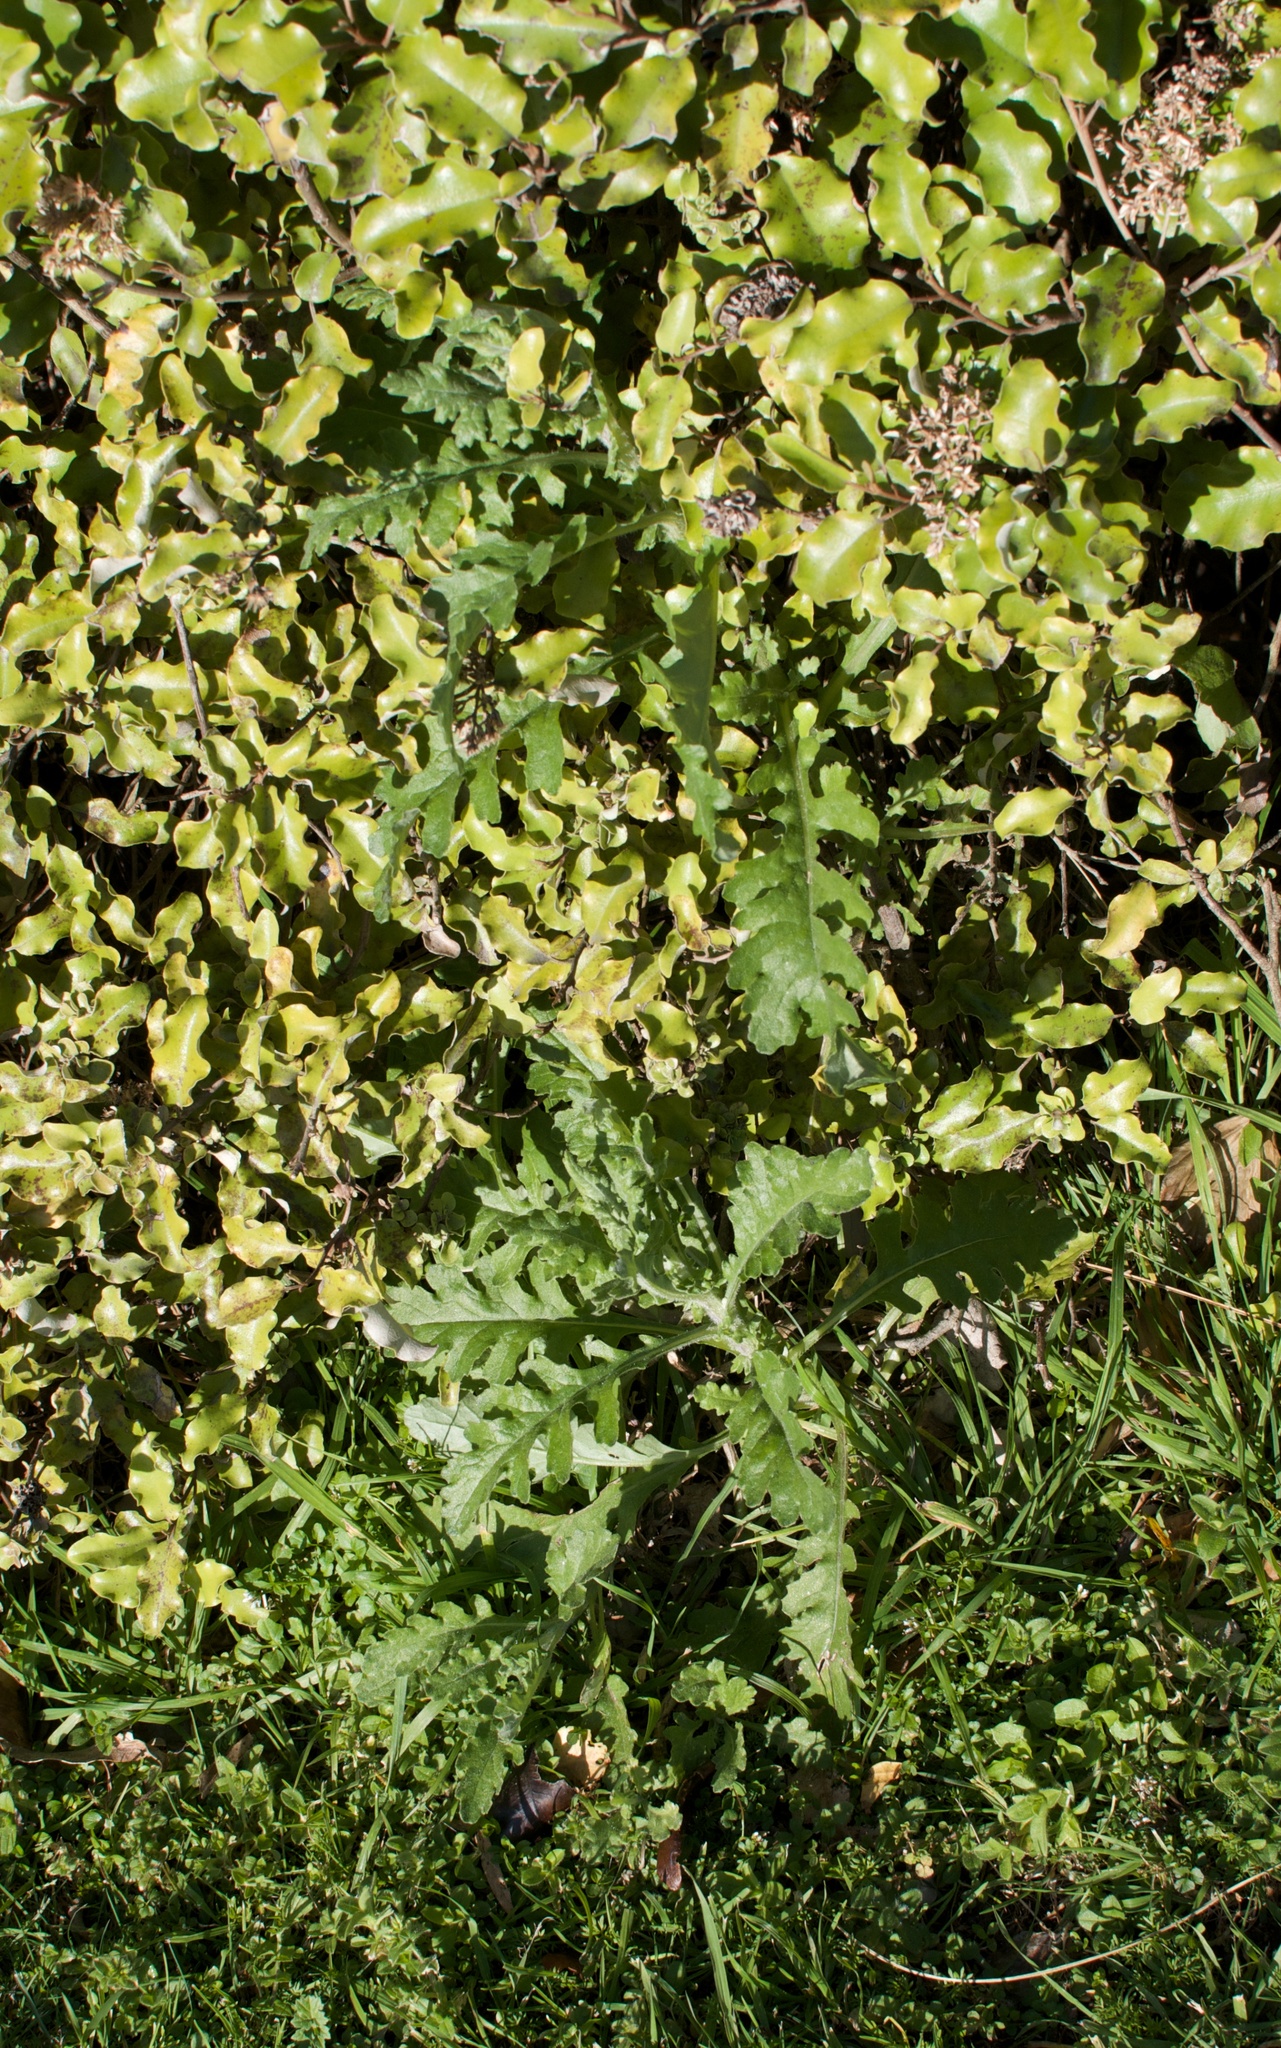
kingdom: Plantae
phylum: Tracheophyta
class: Magnoliopsida
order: Asterales
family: Asteraceae
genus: Senecio
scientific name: Senecio glomeratus
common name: Cutleaf burnweed
